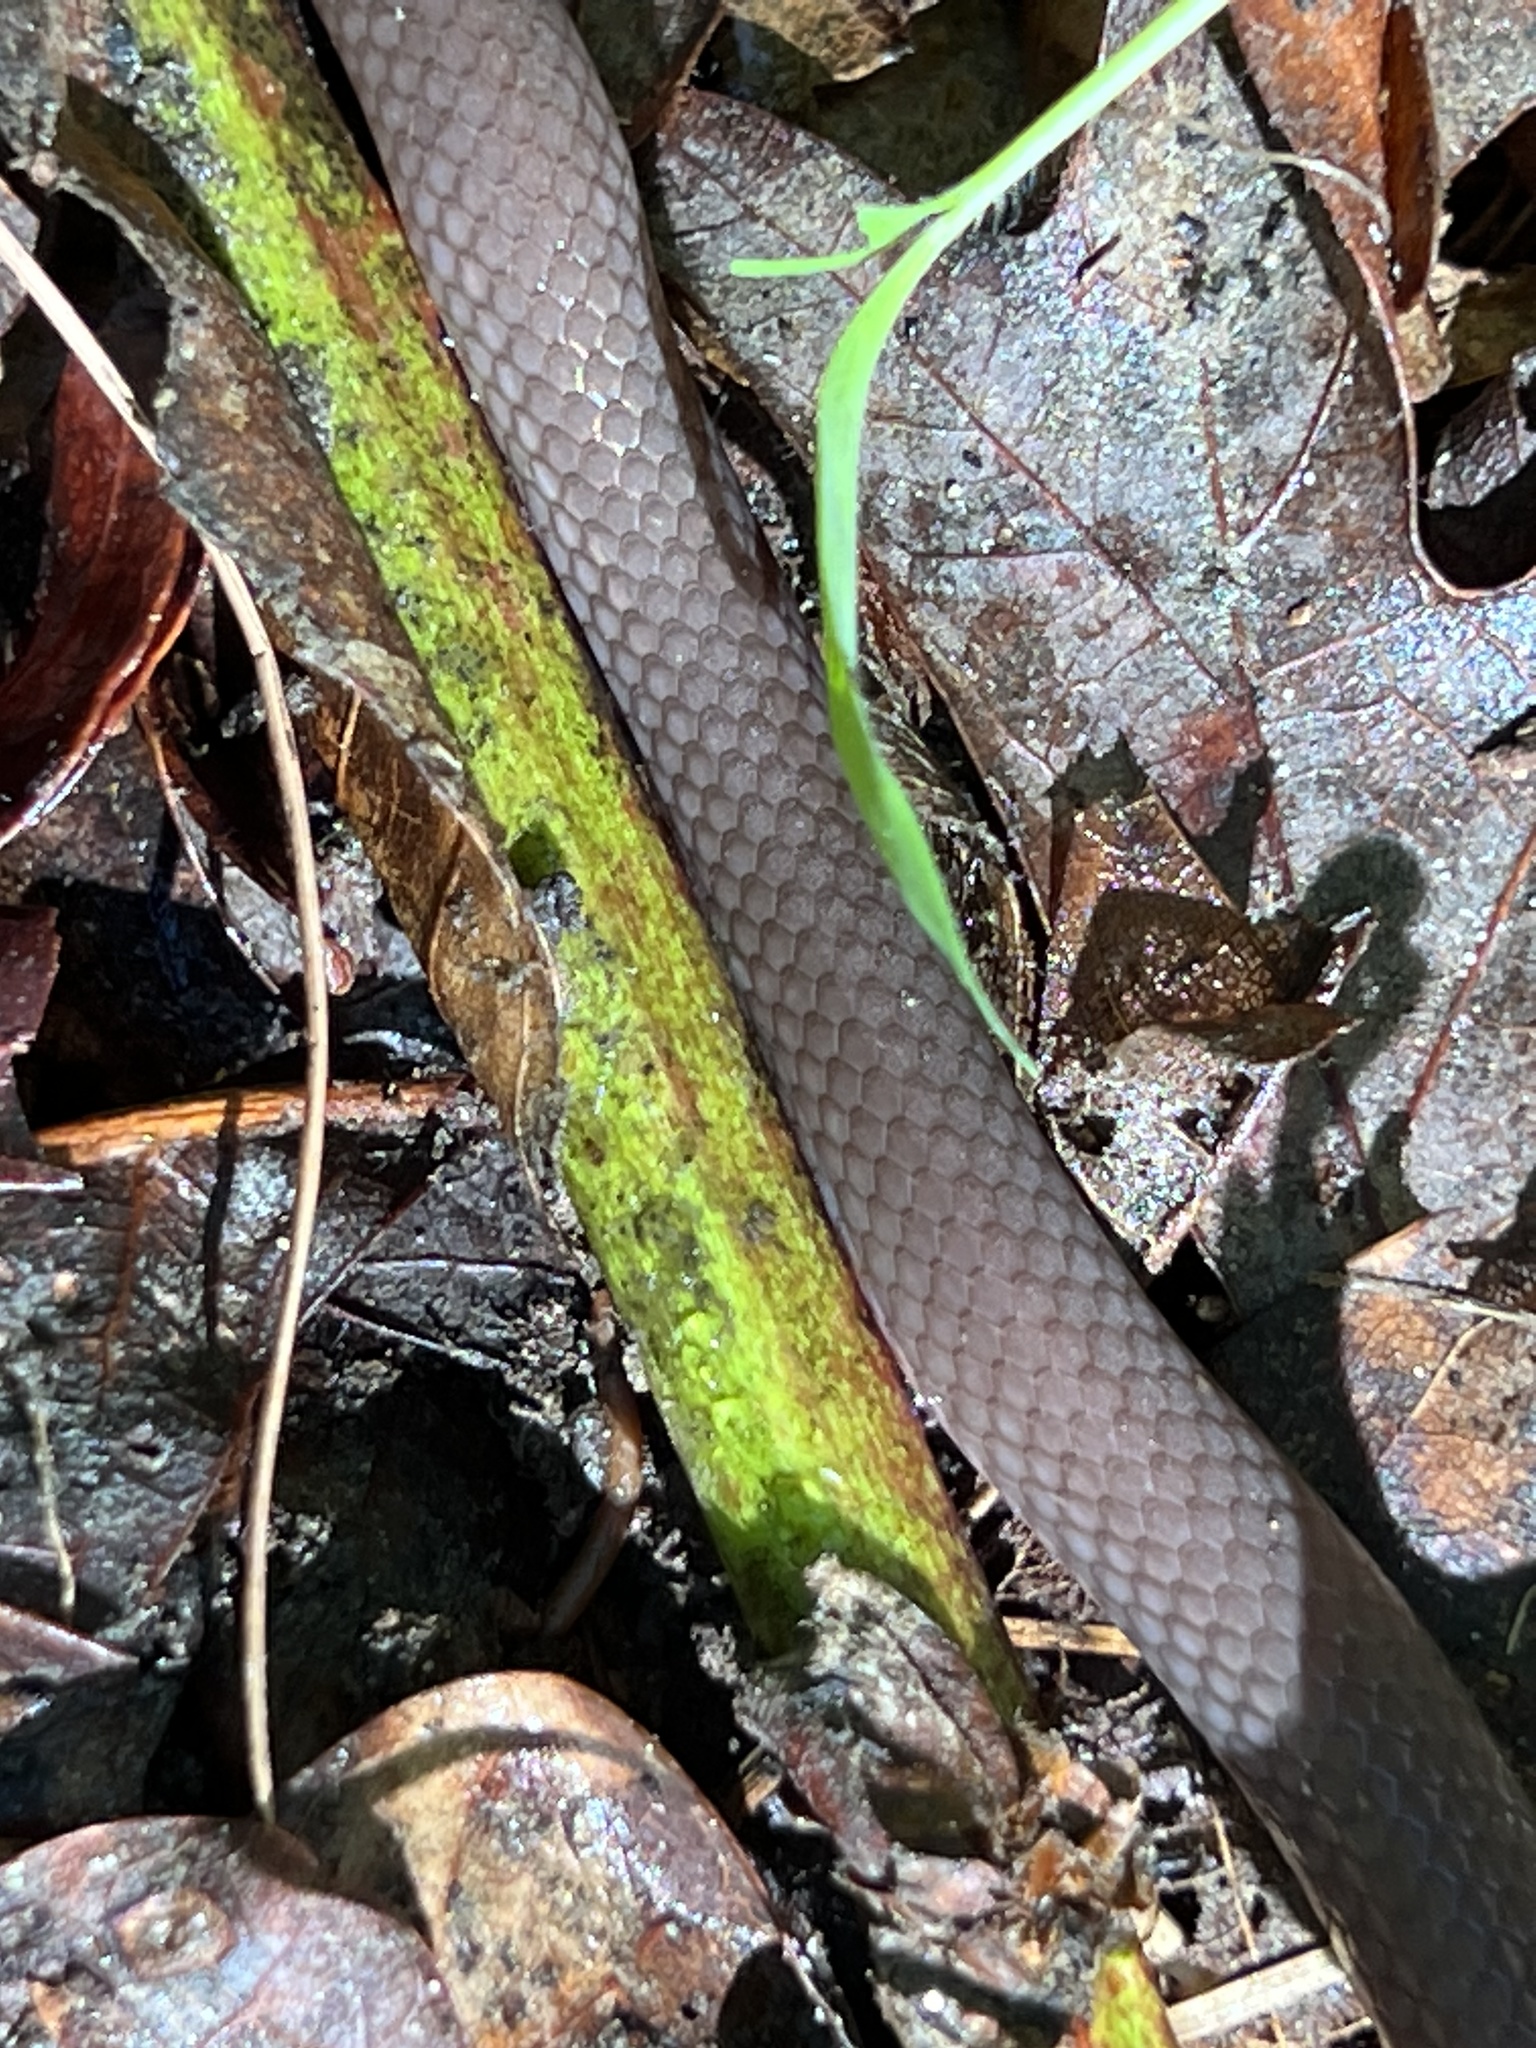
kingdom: Animalia
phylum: Chordata
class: Squamata
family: Colubridae
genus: Carphophis
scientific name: Carphophis amoenus
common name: Eastern worm snake
